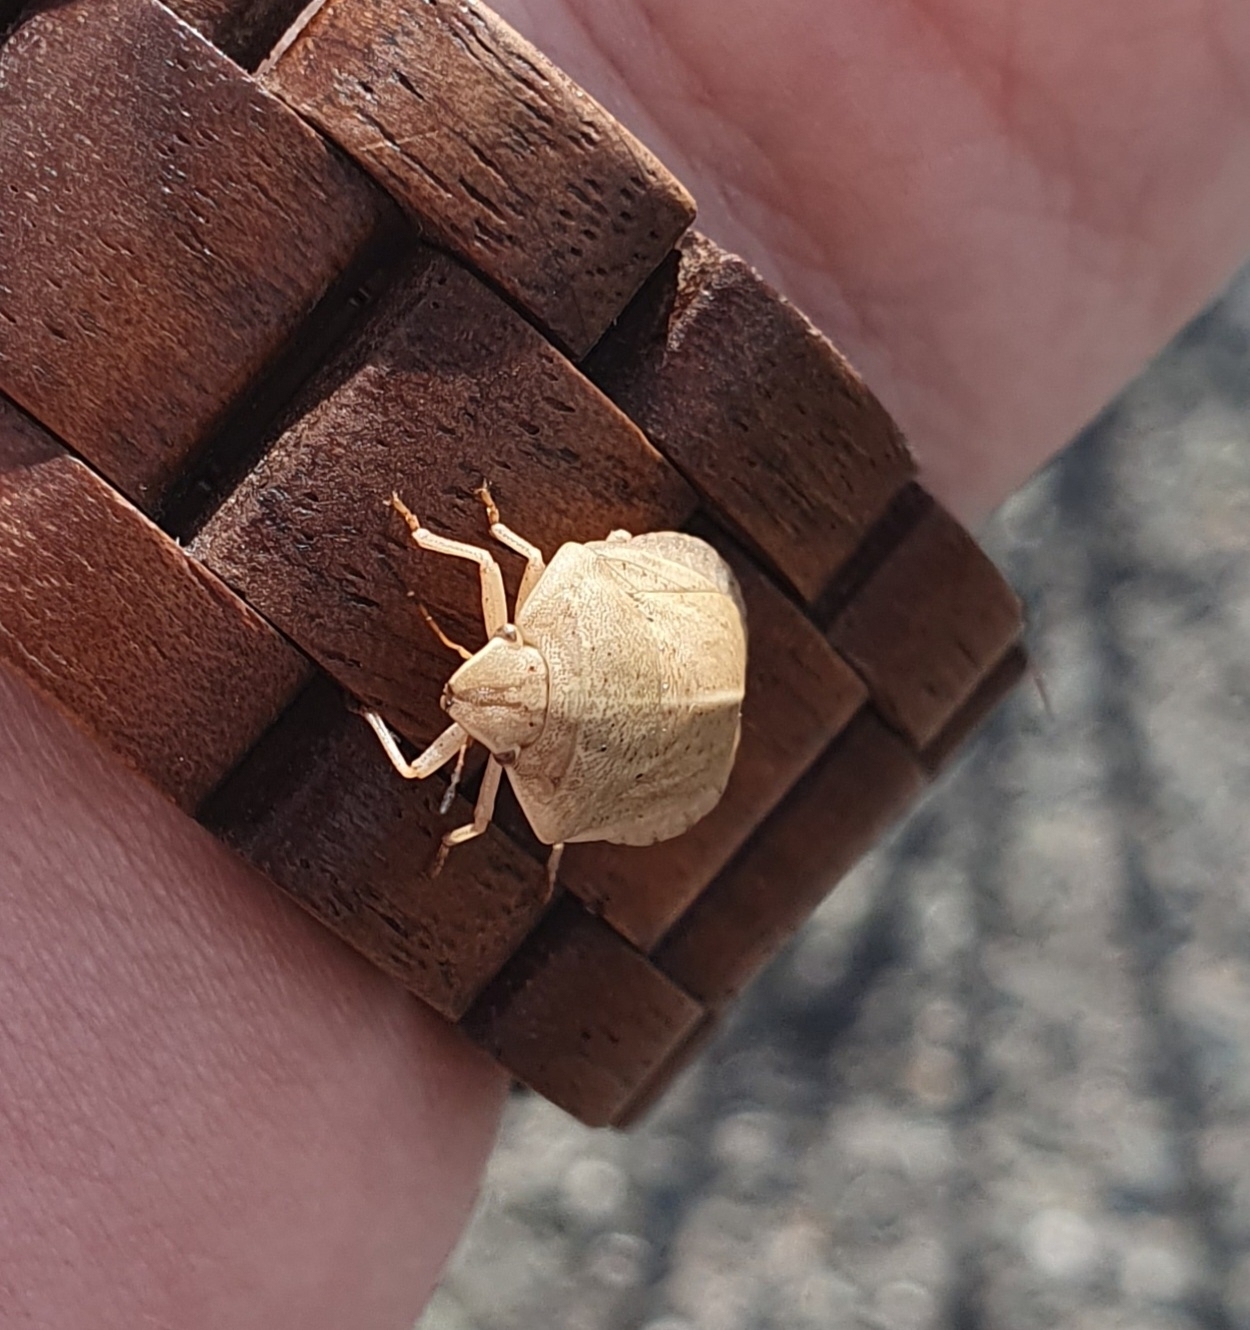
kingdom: Animalia
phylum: Arthropoda
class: Insecta
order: Hemiptera
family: Scutelleridae
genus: Eurygaster
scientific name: Eurygaster austriaca
